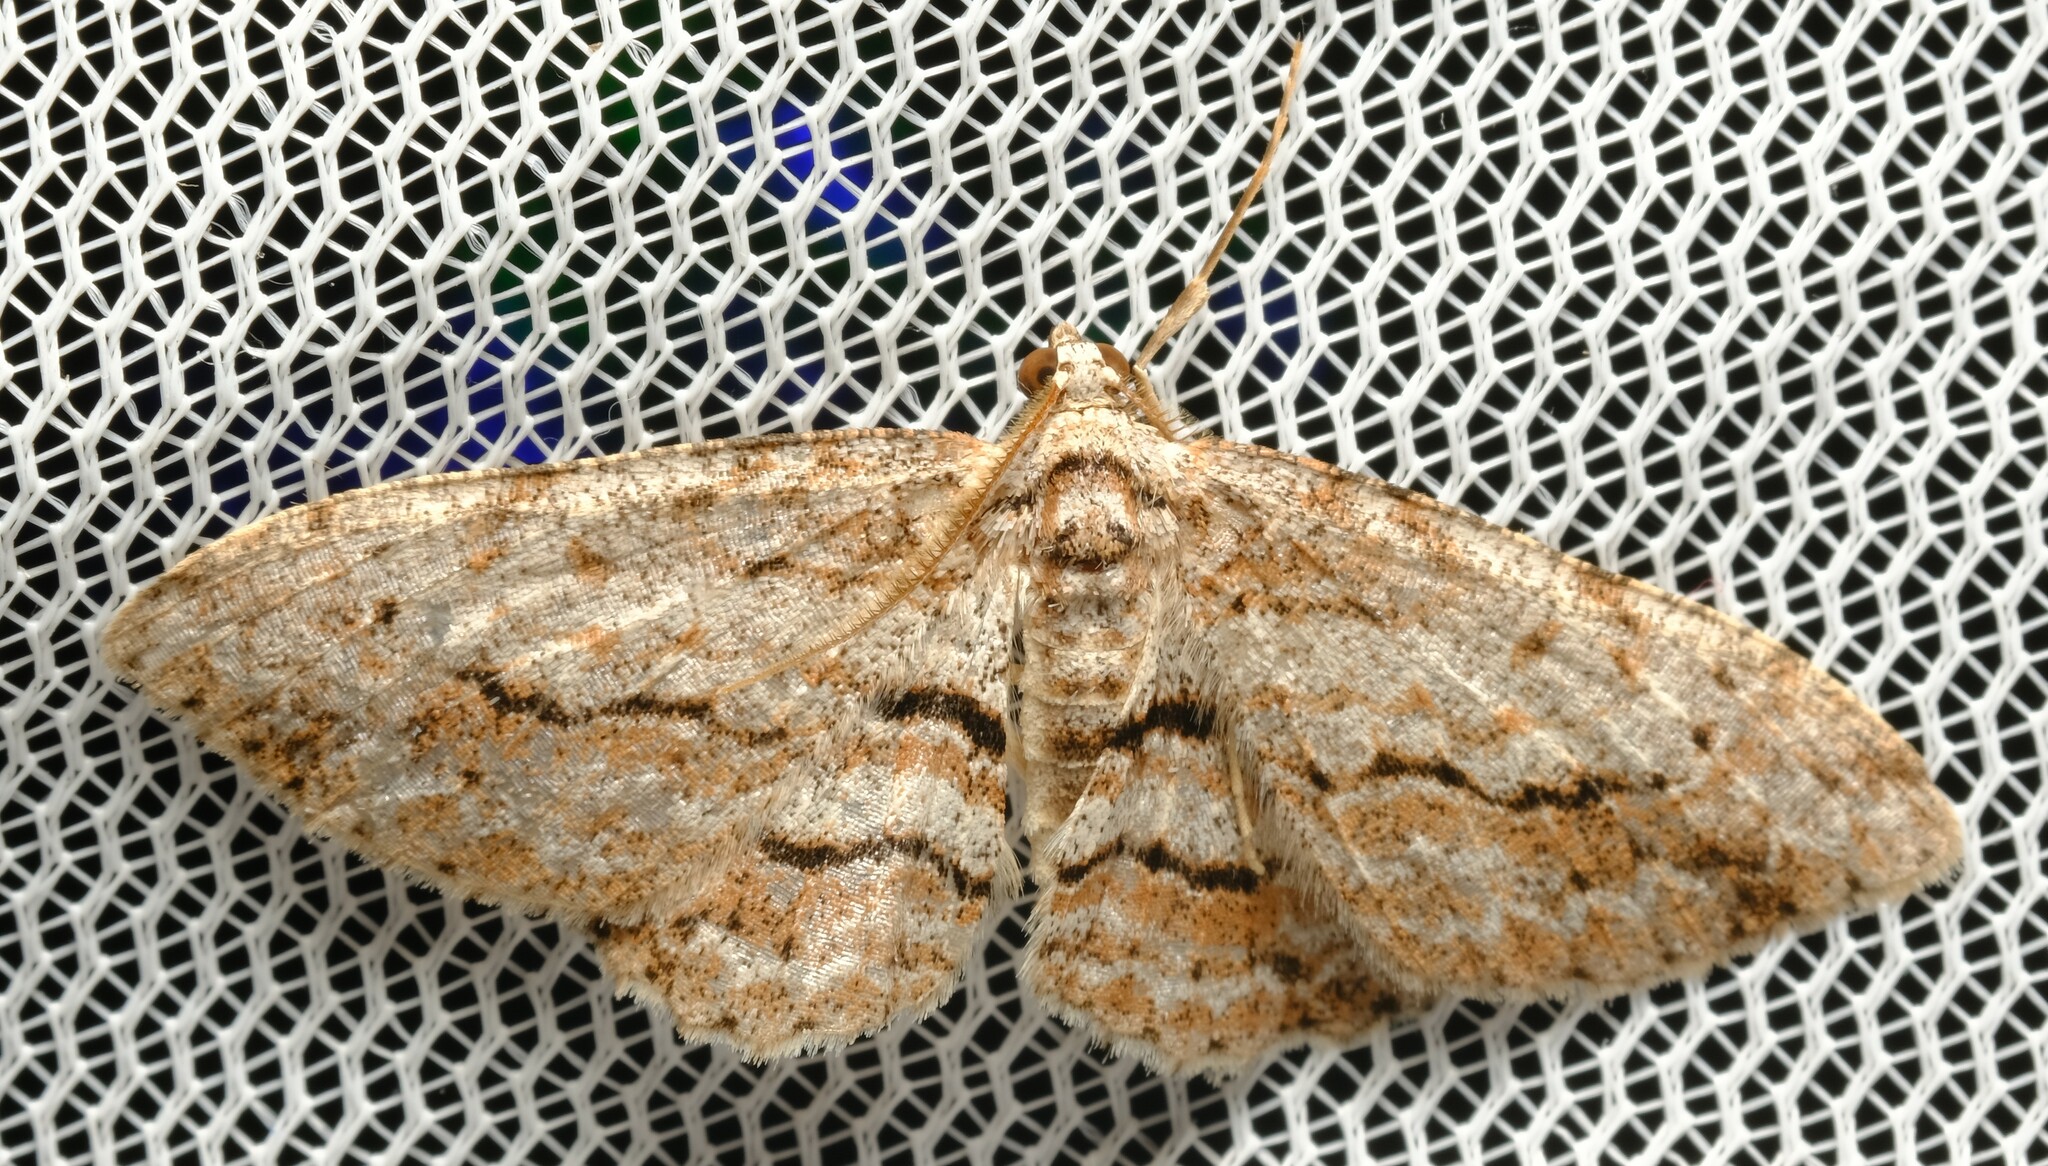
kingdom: Animalia
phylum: Arthropoda
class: Insecta
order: Lepidoptera
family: Geometridae
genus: Didymoctenia
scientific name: Didymoctenia exsuperata
